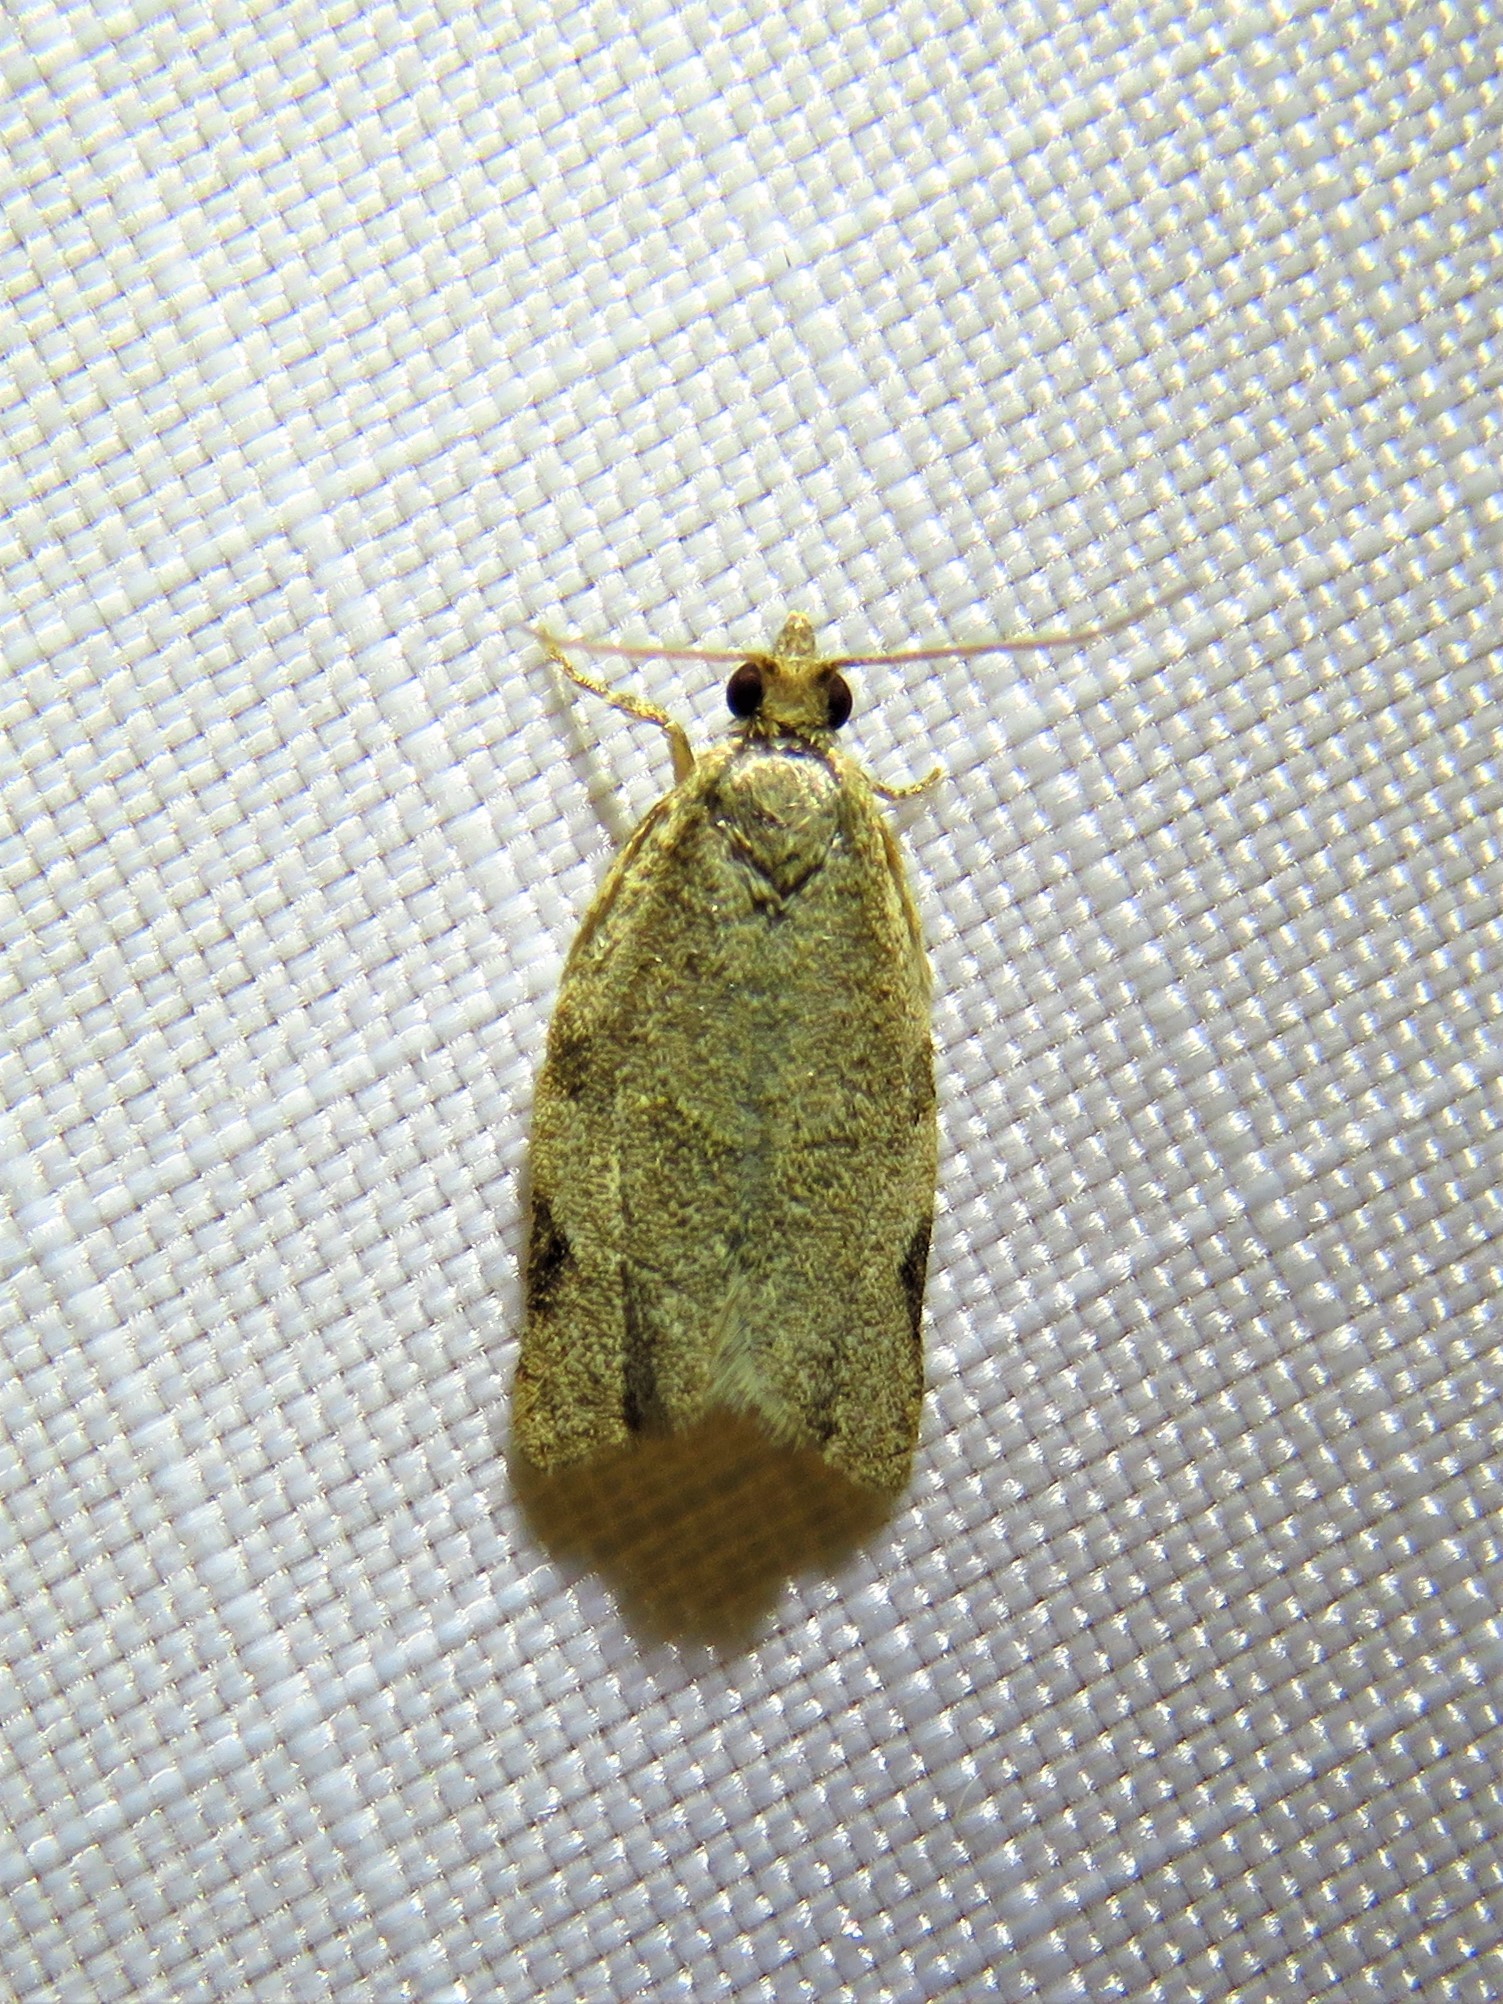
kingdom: Animalia
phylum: Arthropoda
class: Insecta
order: Lepidoptera
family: Tortricidae
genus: Clepsis
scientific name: Clepsis virescana
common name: Greenish apple moth
